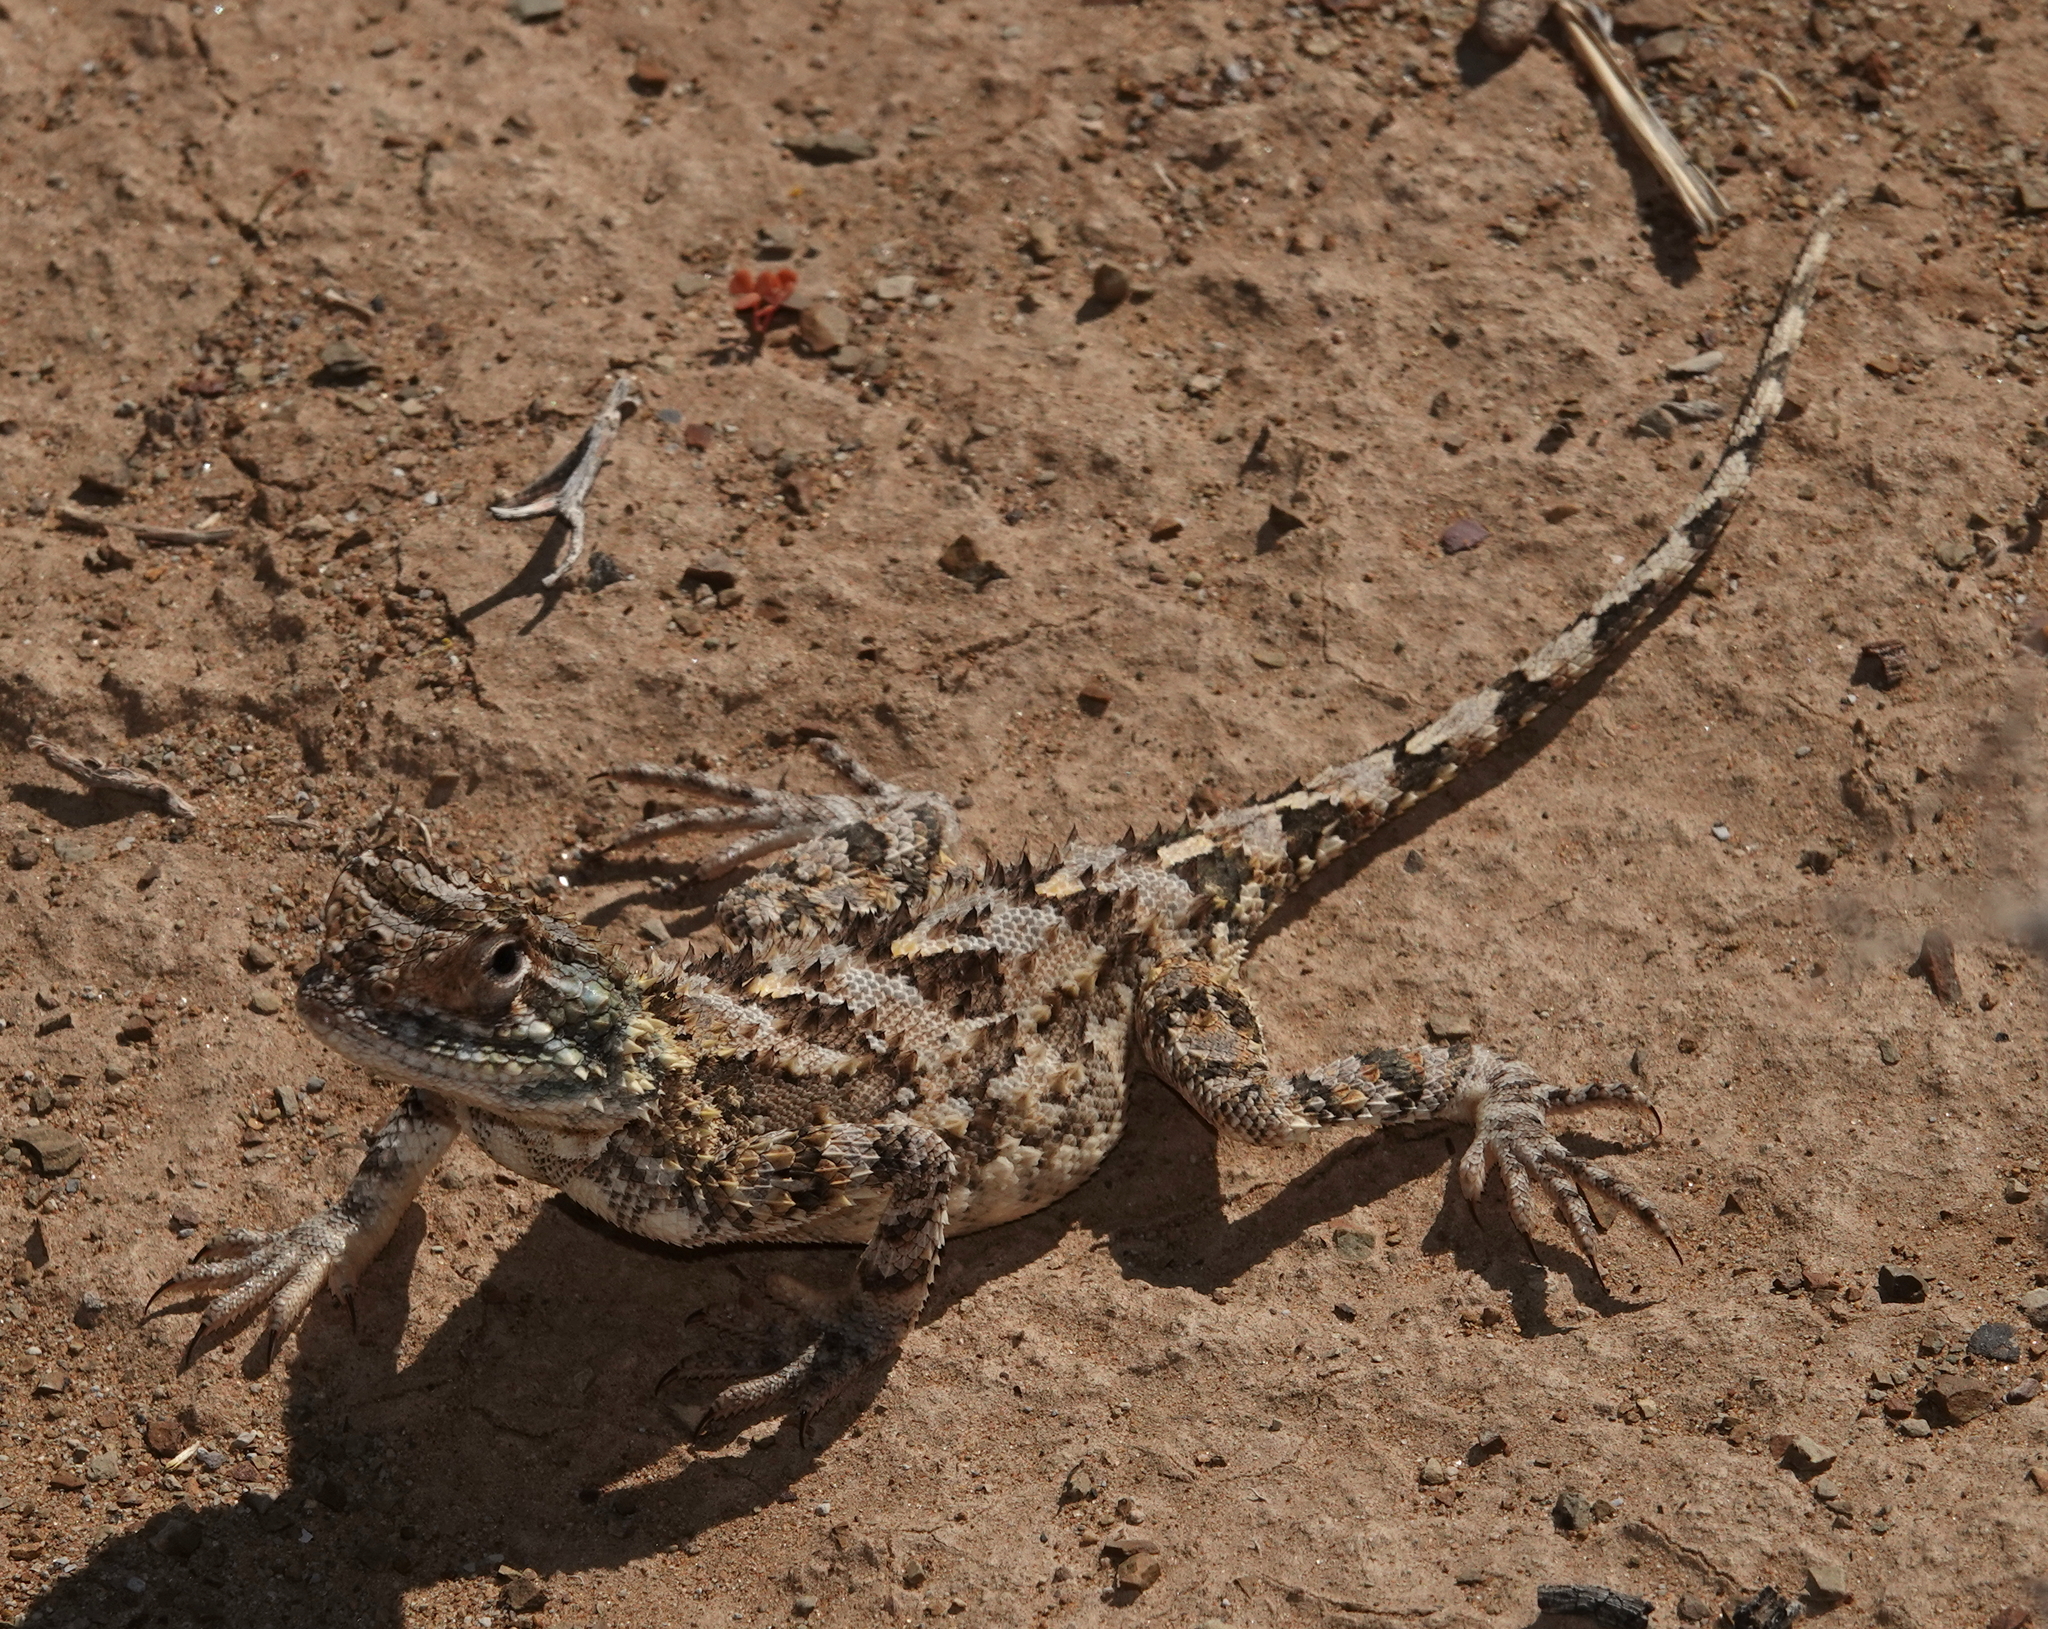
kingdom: Animalia
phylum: Chordata
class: Squamata
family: Agamidae
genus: Agama
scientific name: Agama hispida
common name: Common spiny agama
